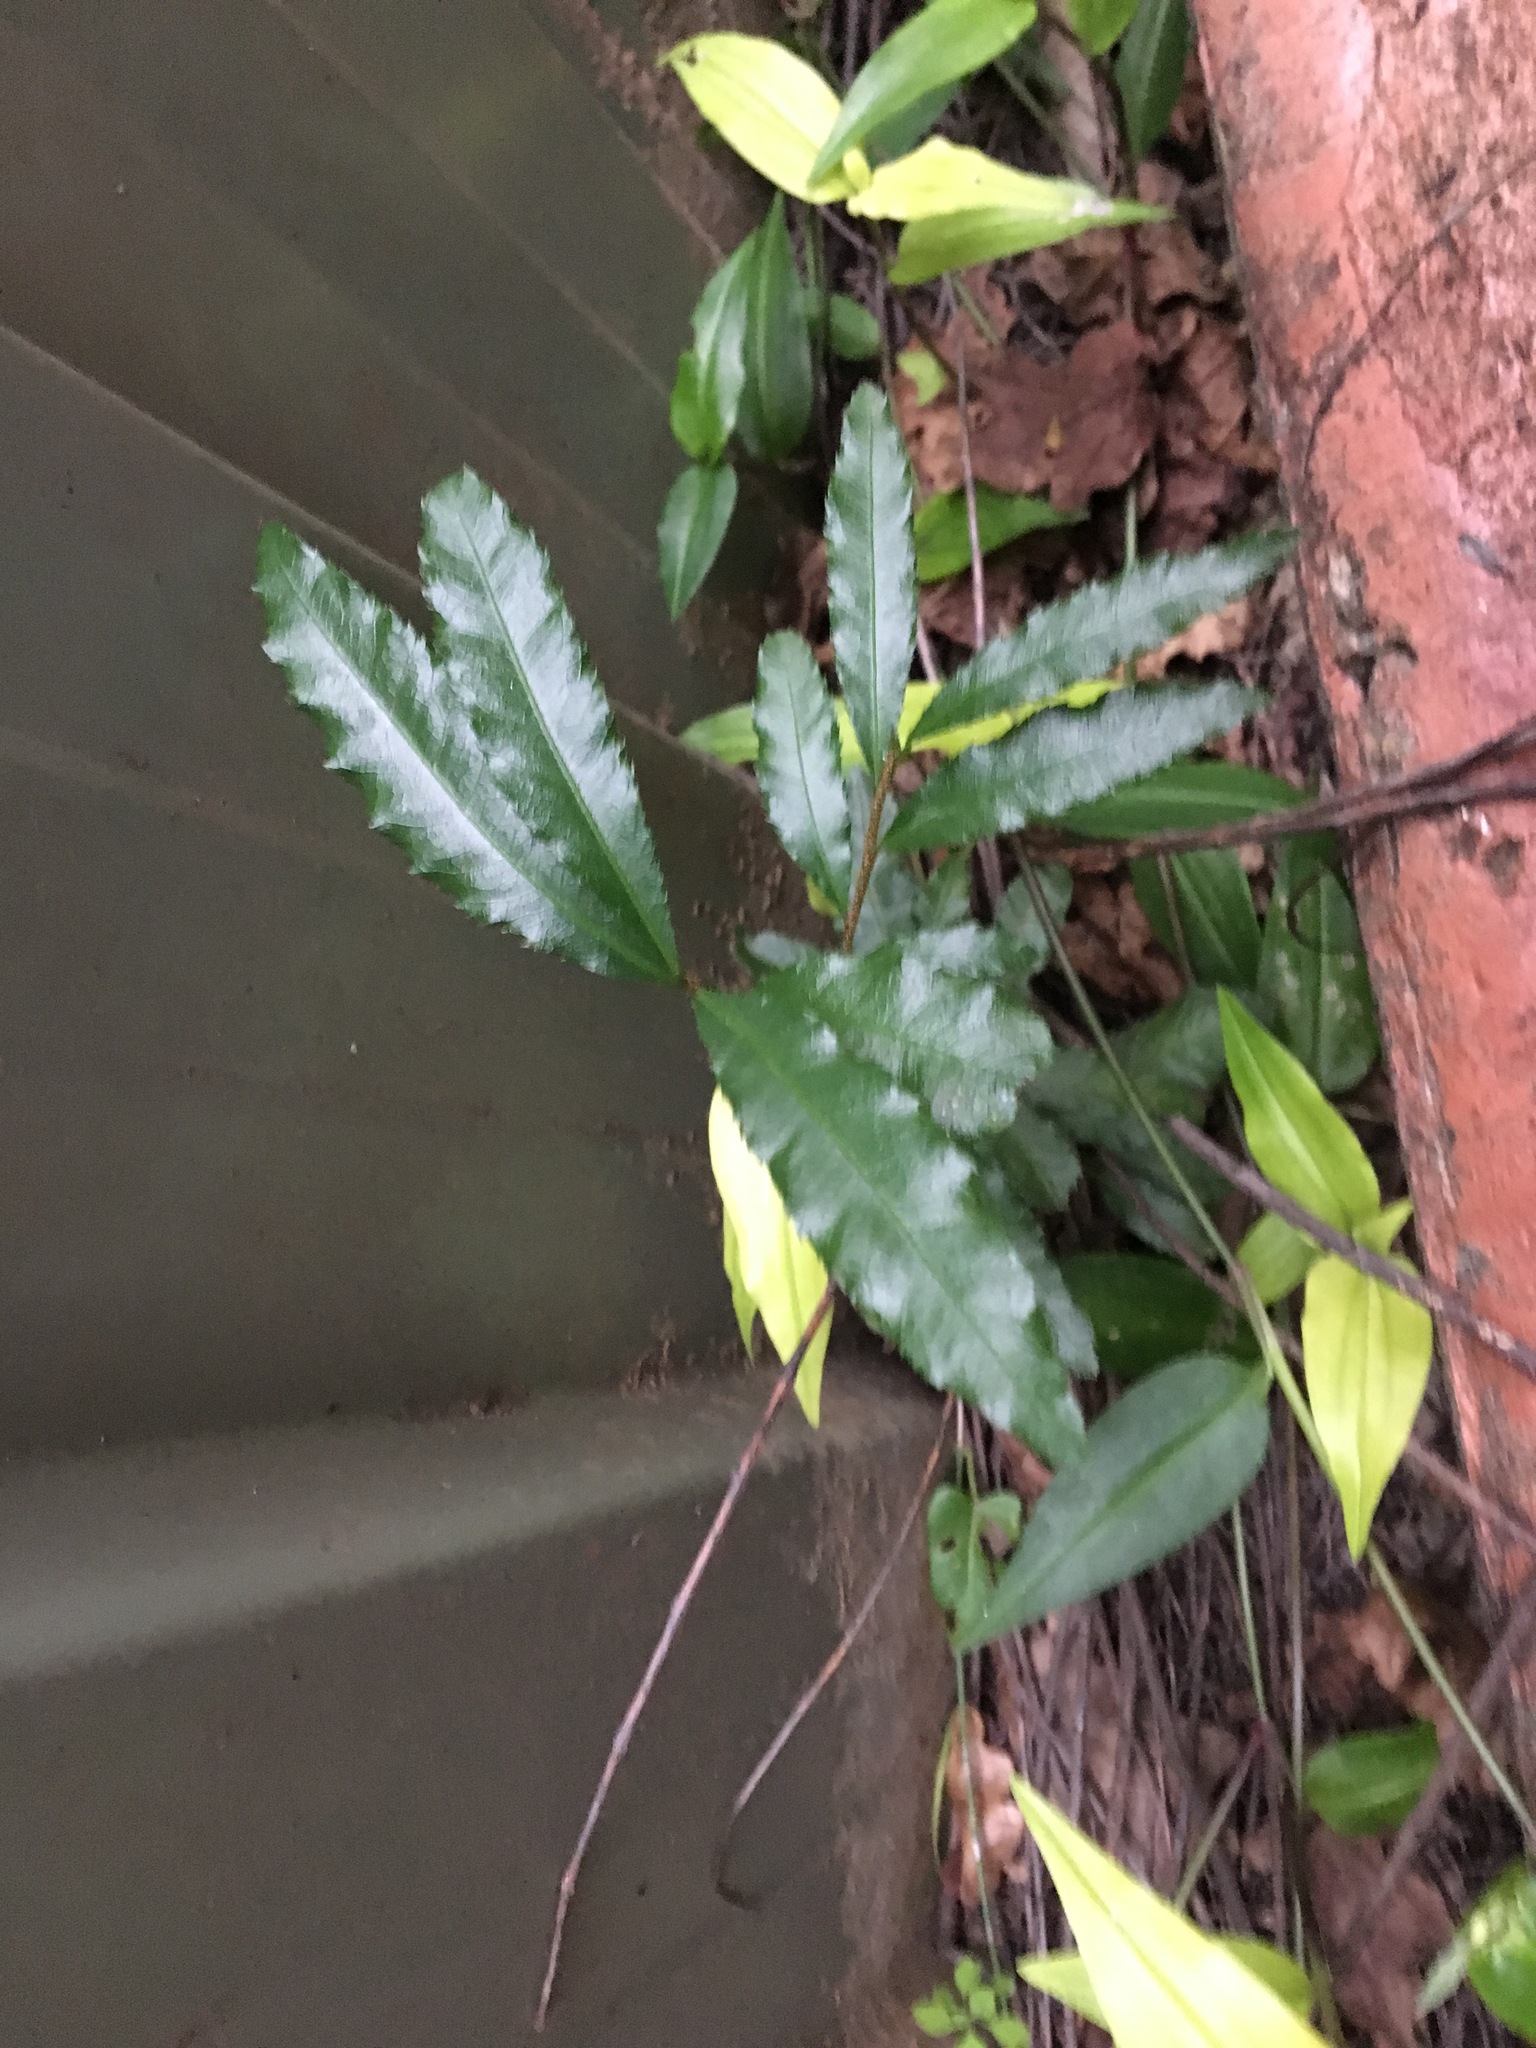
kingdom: Plantae
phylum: Tracheophyta
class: Magnoliopsida
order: Malpighiales
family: Ochnaceae
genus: Ochna
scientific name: Ochna serrulata
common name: Mickey mouse plant
